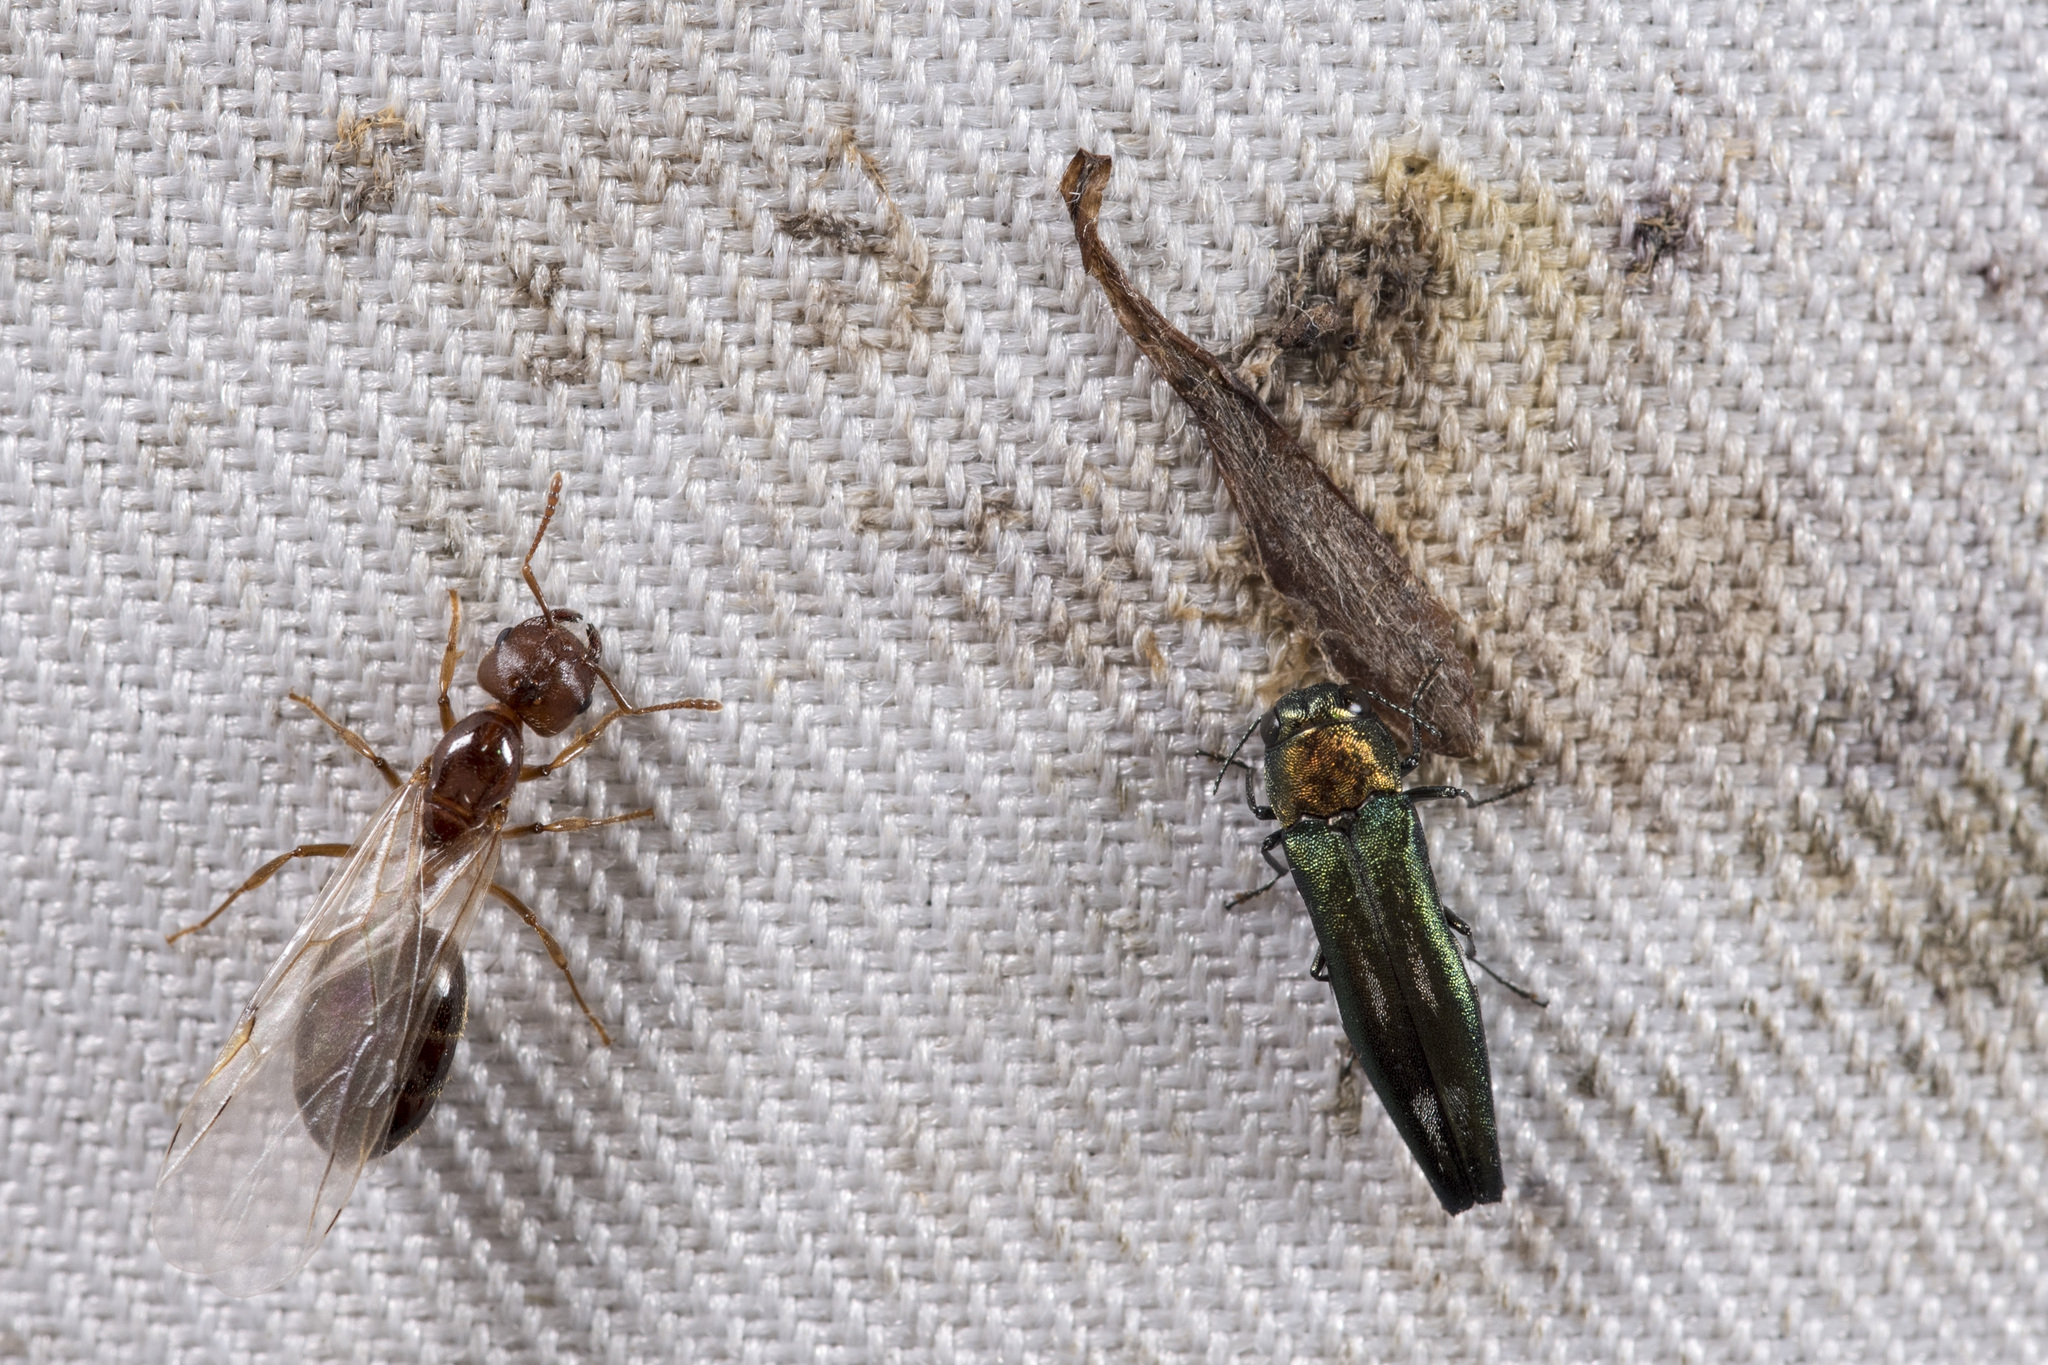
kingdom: Animalia
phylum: Arthropoda
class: Insecta
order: Coleoptera
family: Buprestidae
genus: Agrilus
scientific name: Agrilus plasoni
